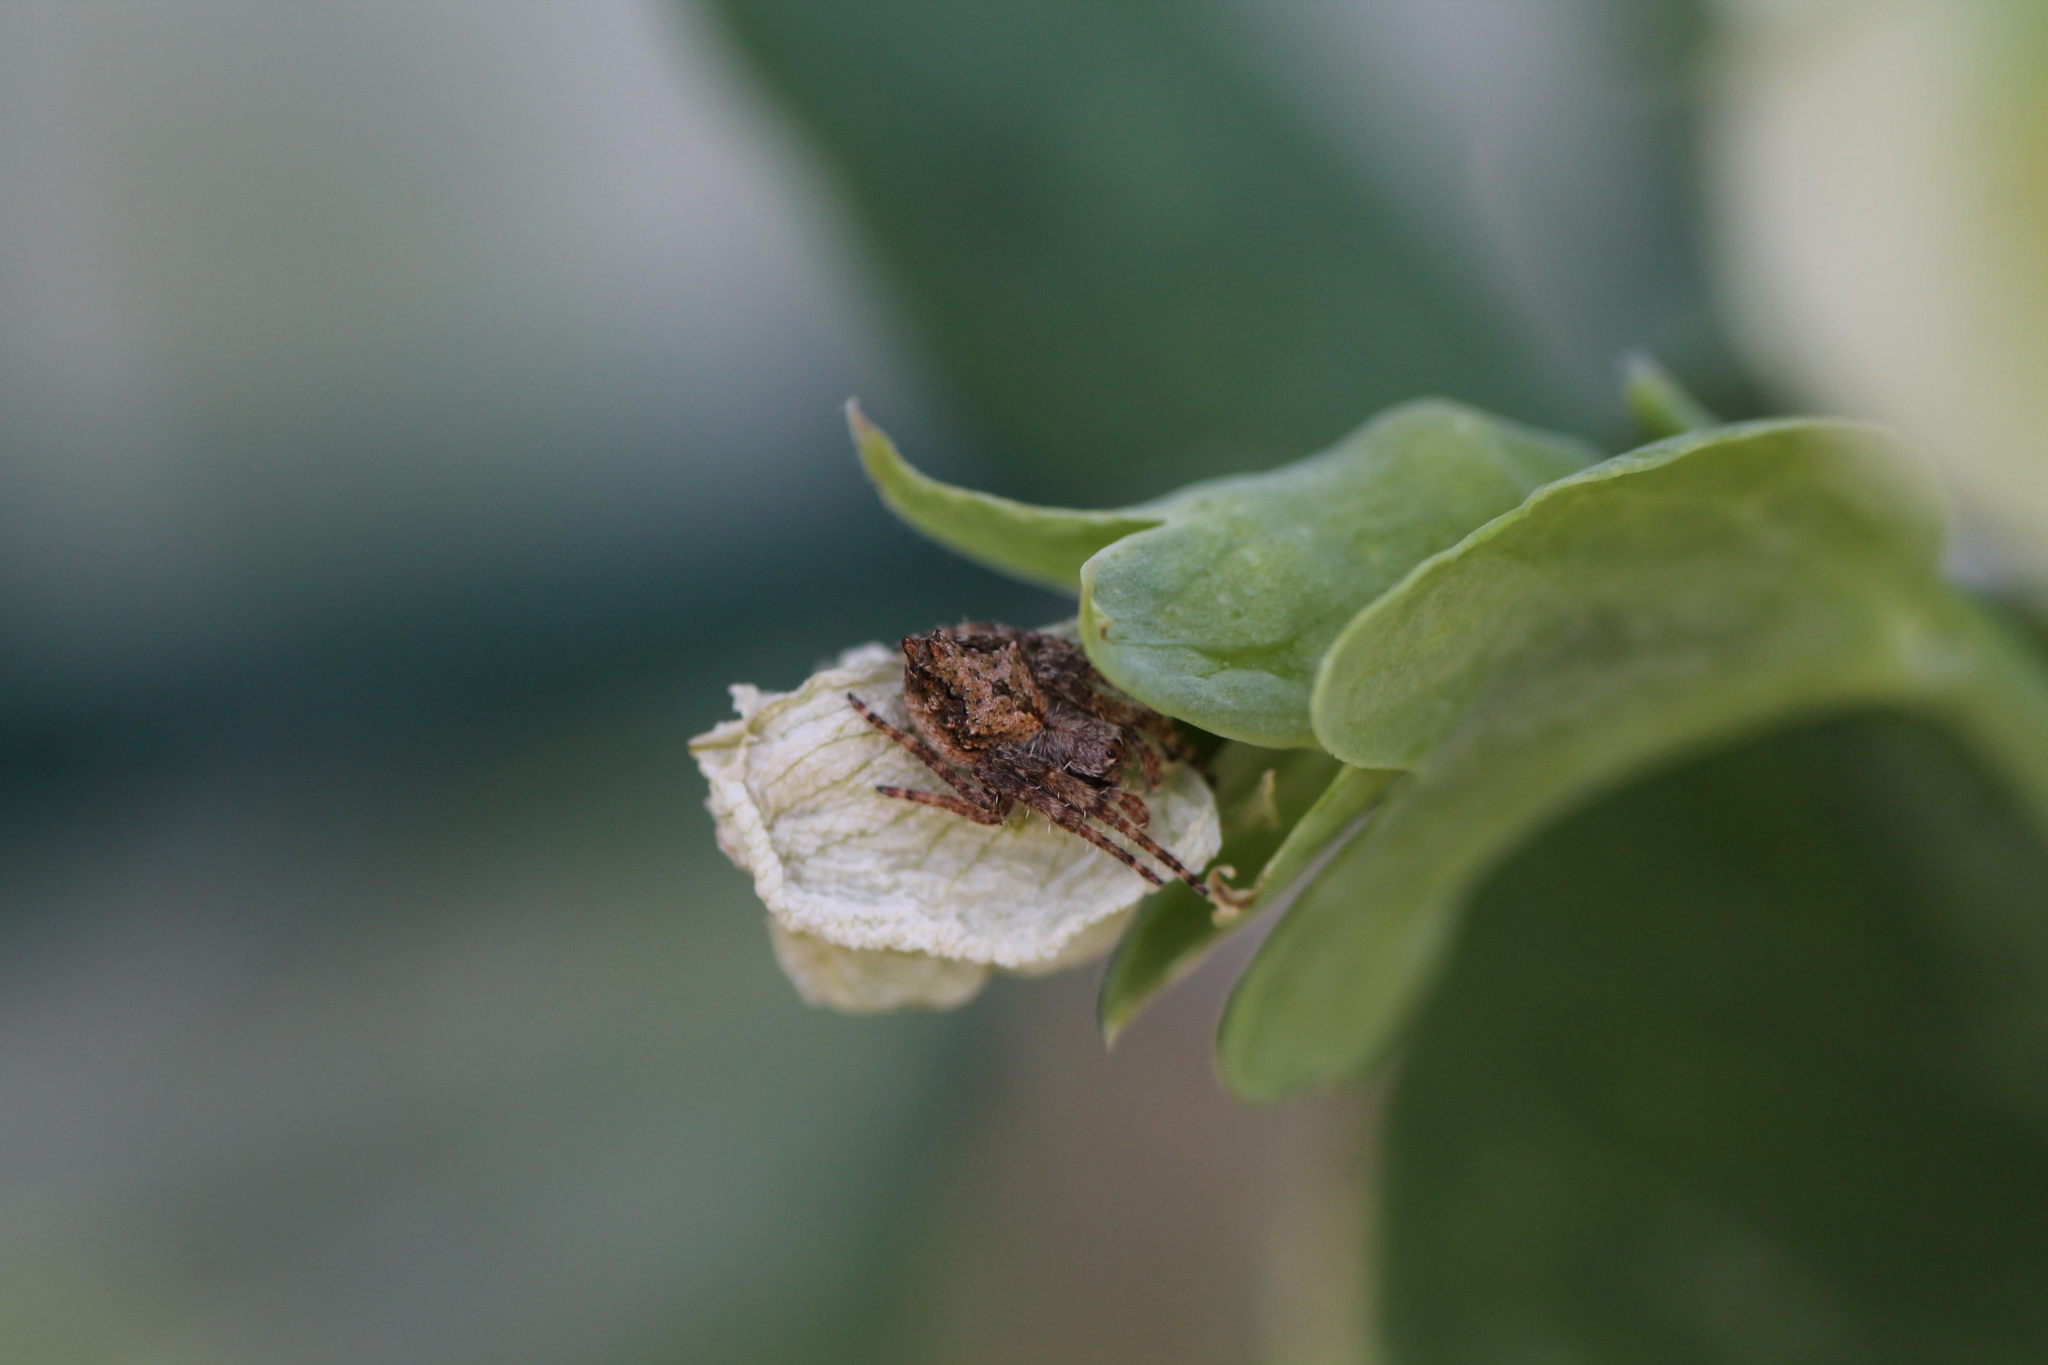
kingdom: Animalia
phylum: Arthropoda
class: Arachnida
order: Araneae
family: Araneidae
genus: Eriophora
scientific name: Eriophora pustulosa
